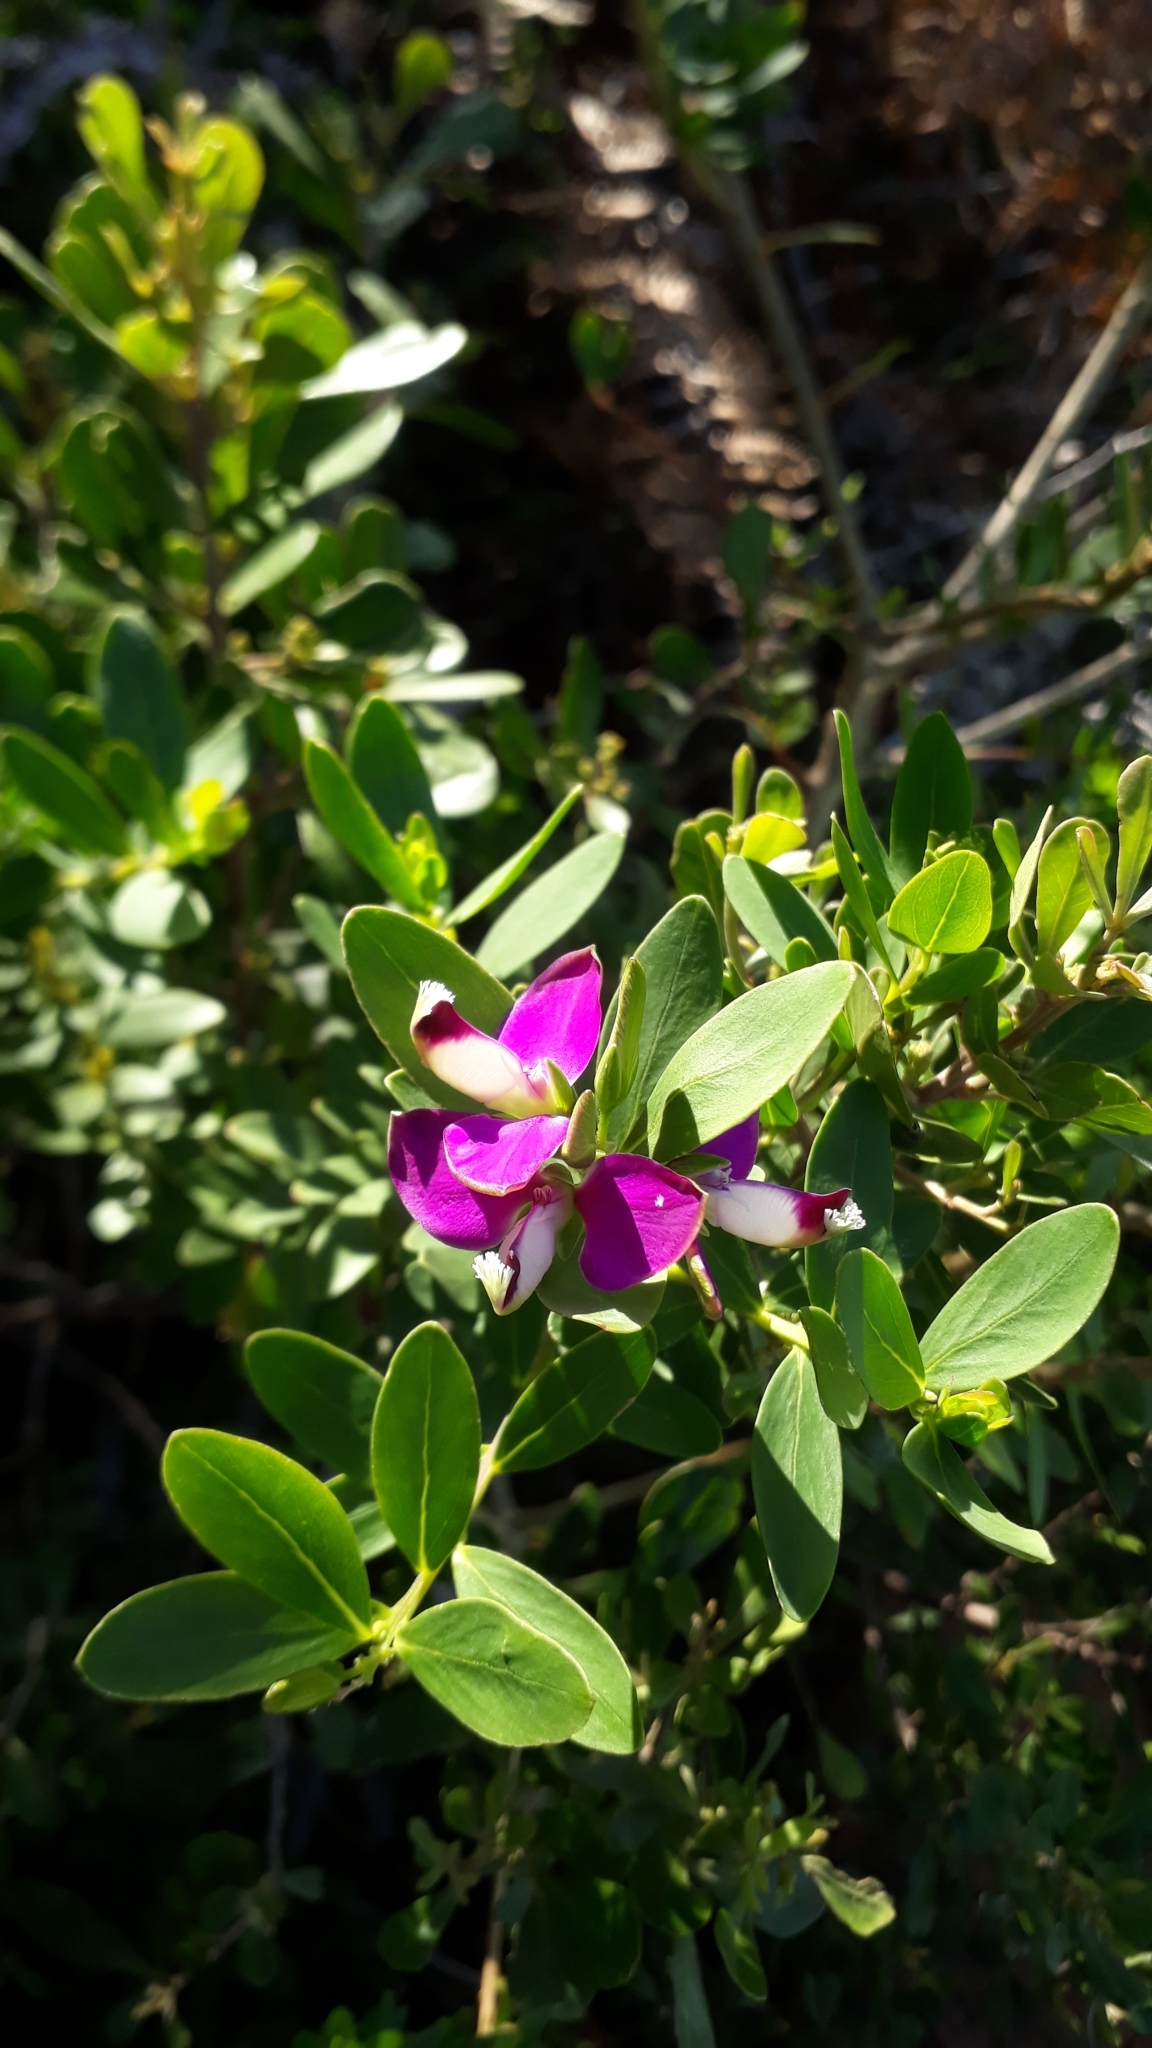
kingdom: Plantae
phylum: Tracheophyta
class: Magnoliopsida
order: Fabales
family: Polygalaceae
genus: Polygala
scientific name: Polygala myrtifolia
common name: Myrtle-leaf milkwort
